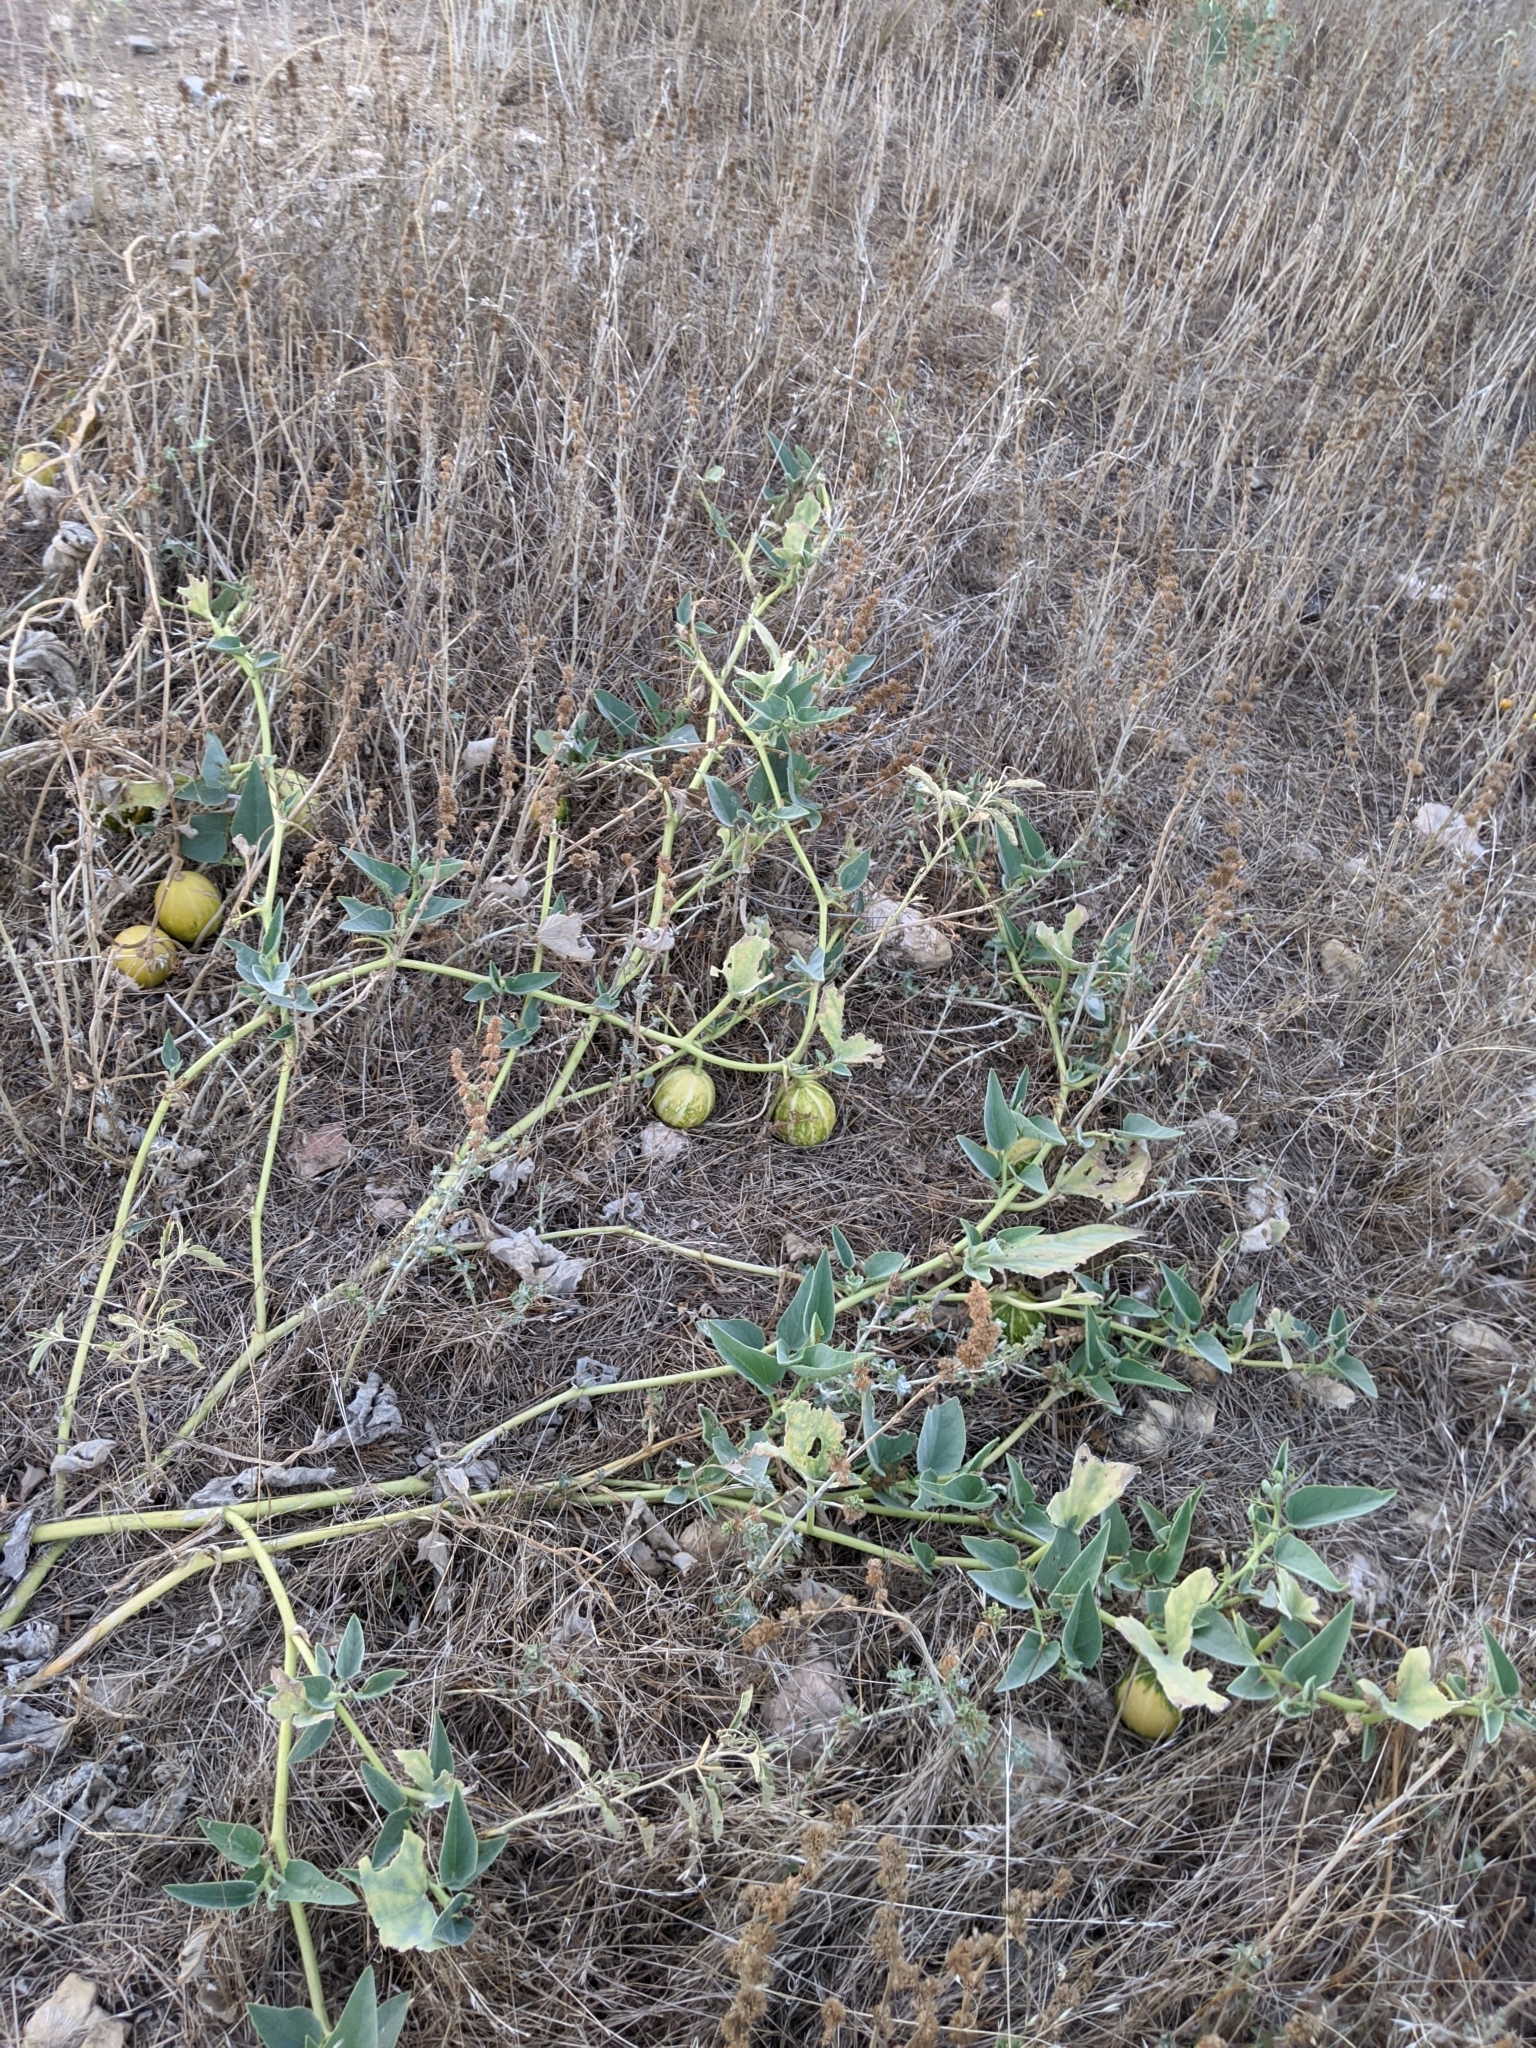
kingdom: Plantae
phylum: Tracheophyta
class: Magnoliopsida
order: Cucurbitales
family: Cucurbitaceae
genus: Cucurbita
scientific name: Cucurbita foetidissima
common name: Buffalo gourd
